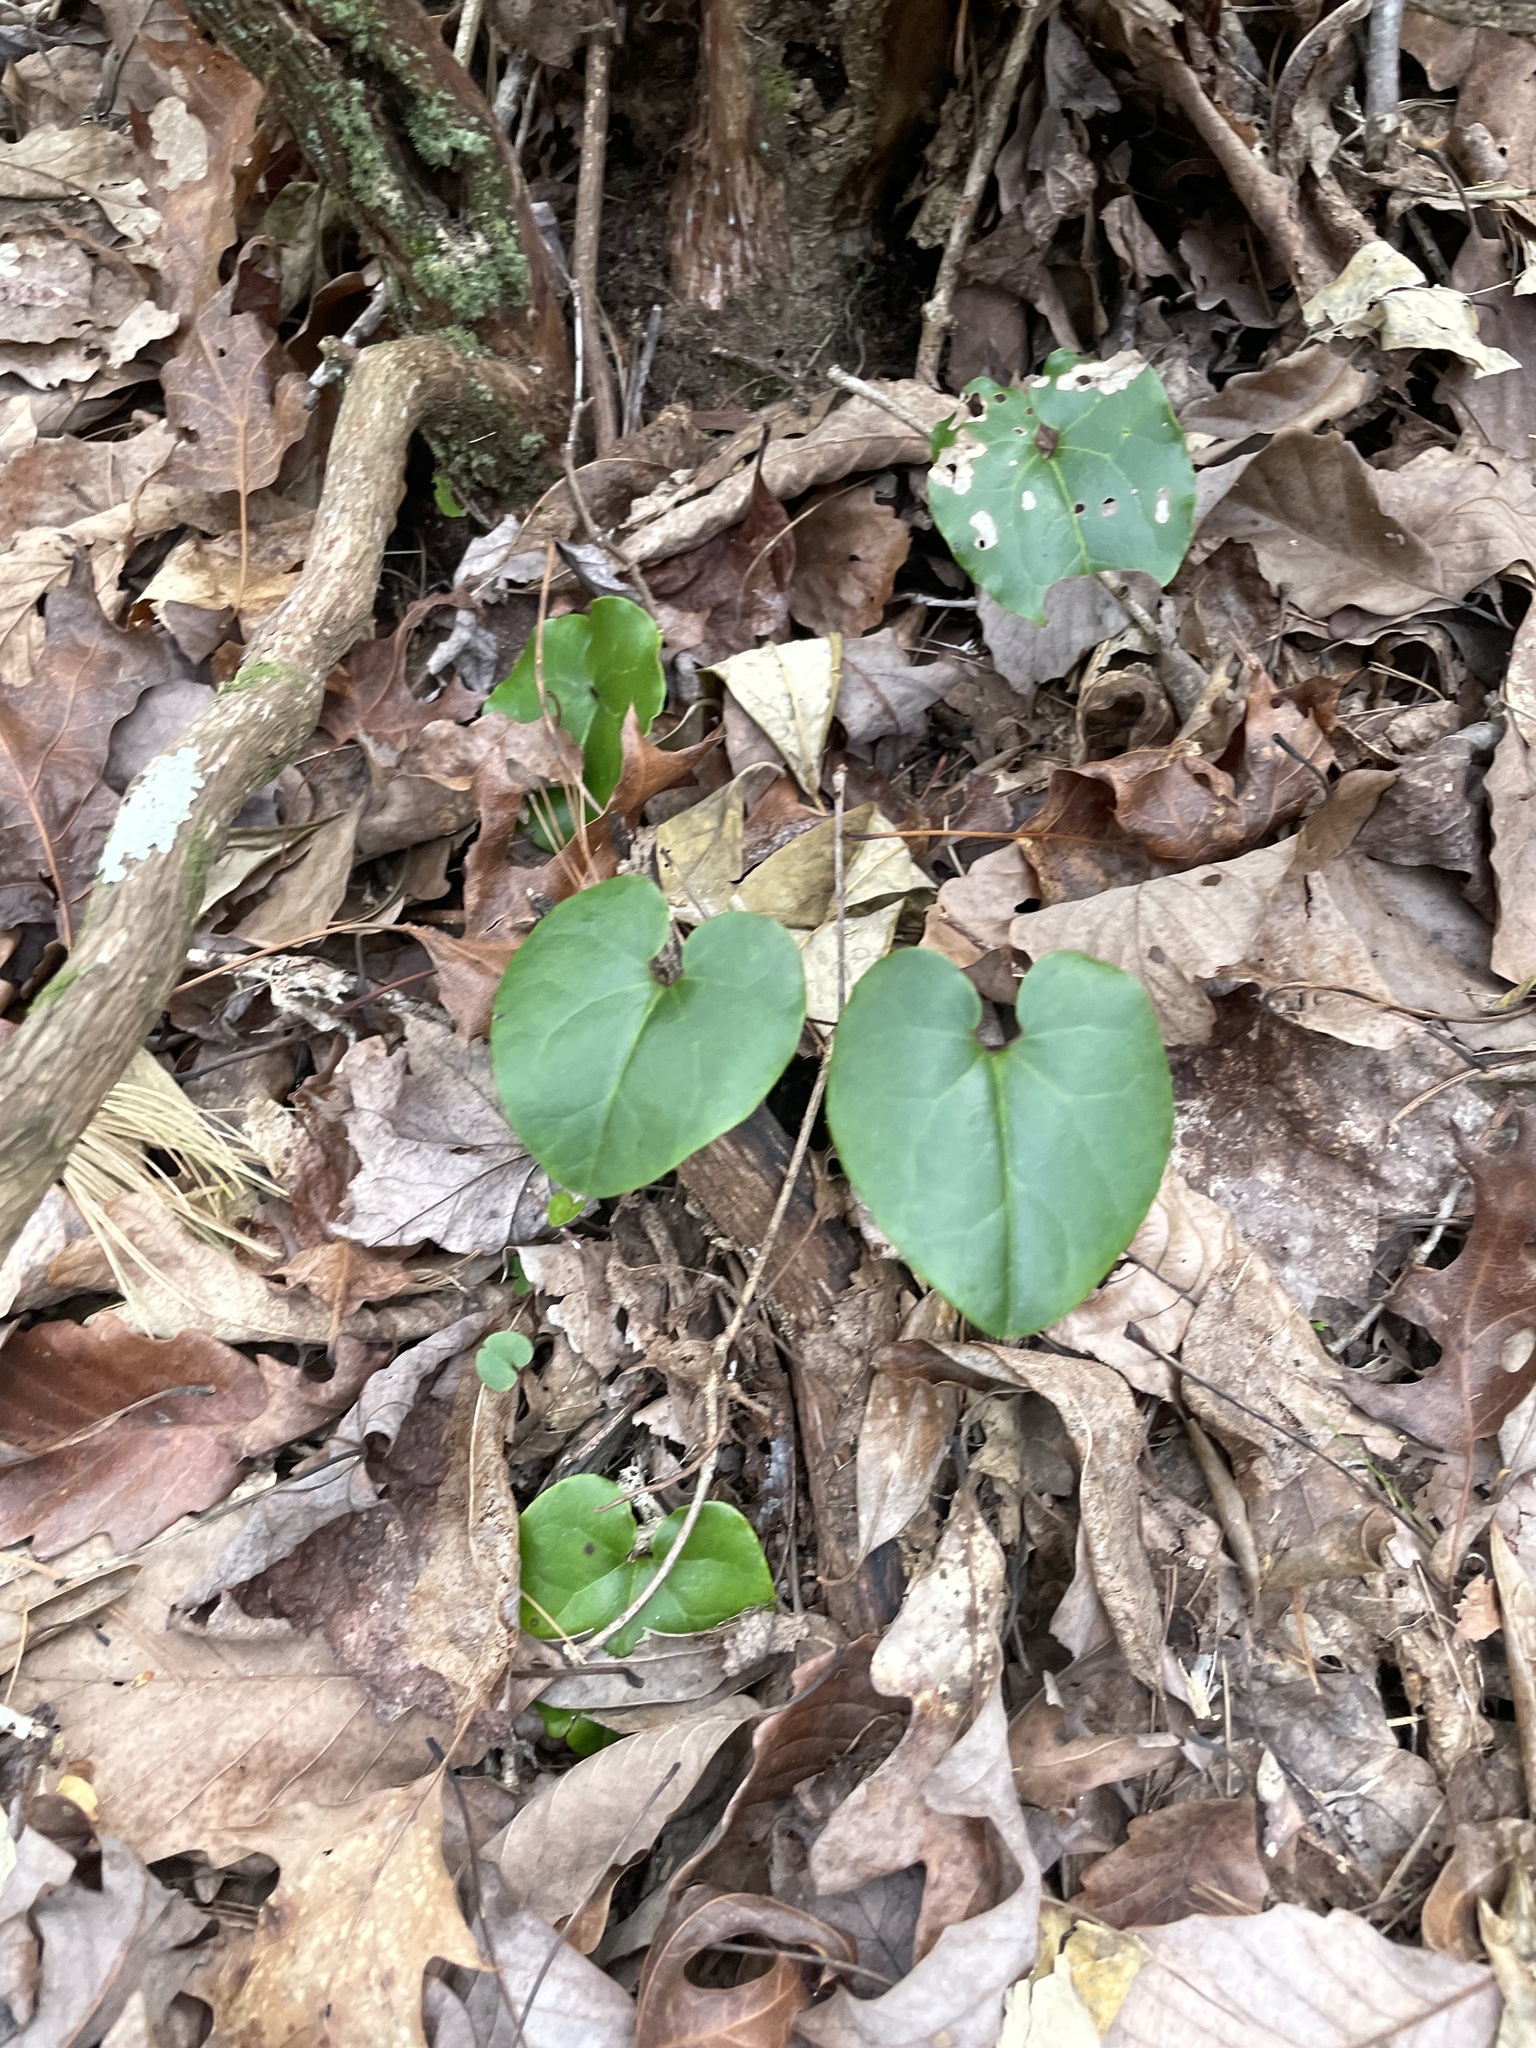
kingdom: Plantae
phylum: Tracheophyta
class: Magnoliopsida
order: Piperales
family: Aristolochiaceae
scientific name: Aristolochiaceae
